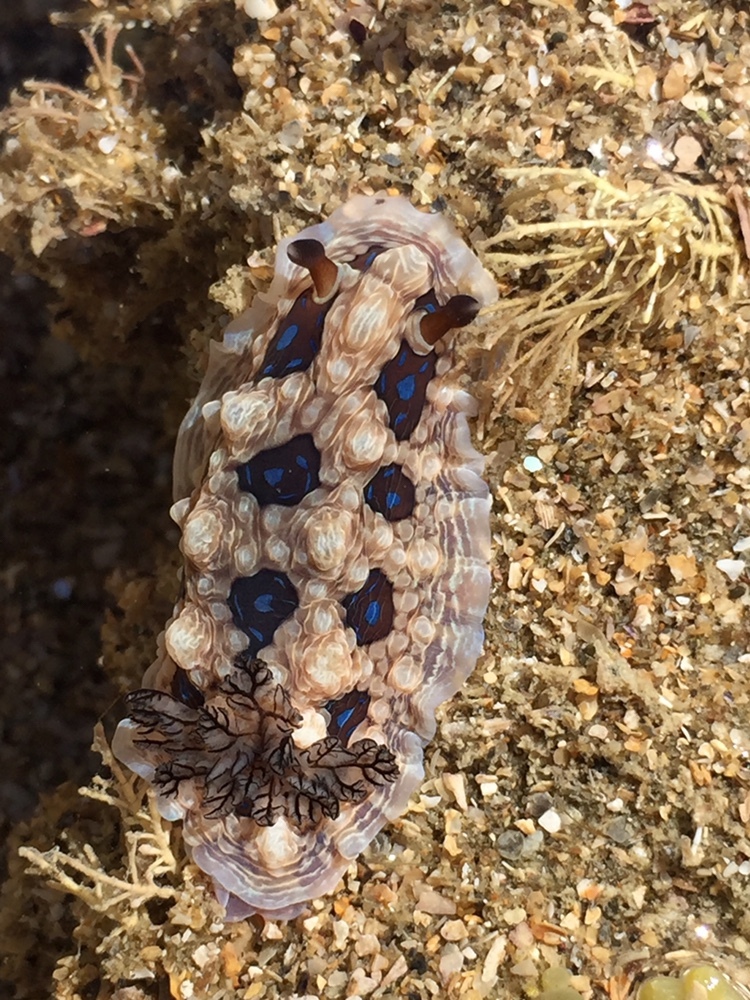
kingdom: Animalia
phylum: Mollusca
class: Gastropoda
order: Nudibranchia
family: Dendrodorididae
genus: Dendrodoris
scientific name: Dendrodoris krusensternii
